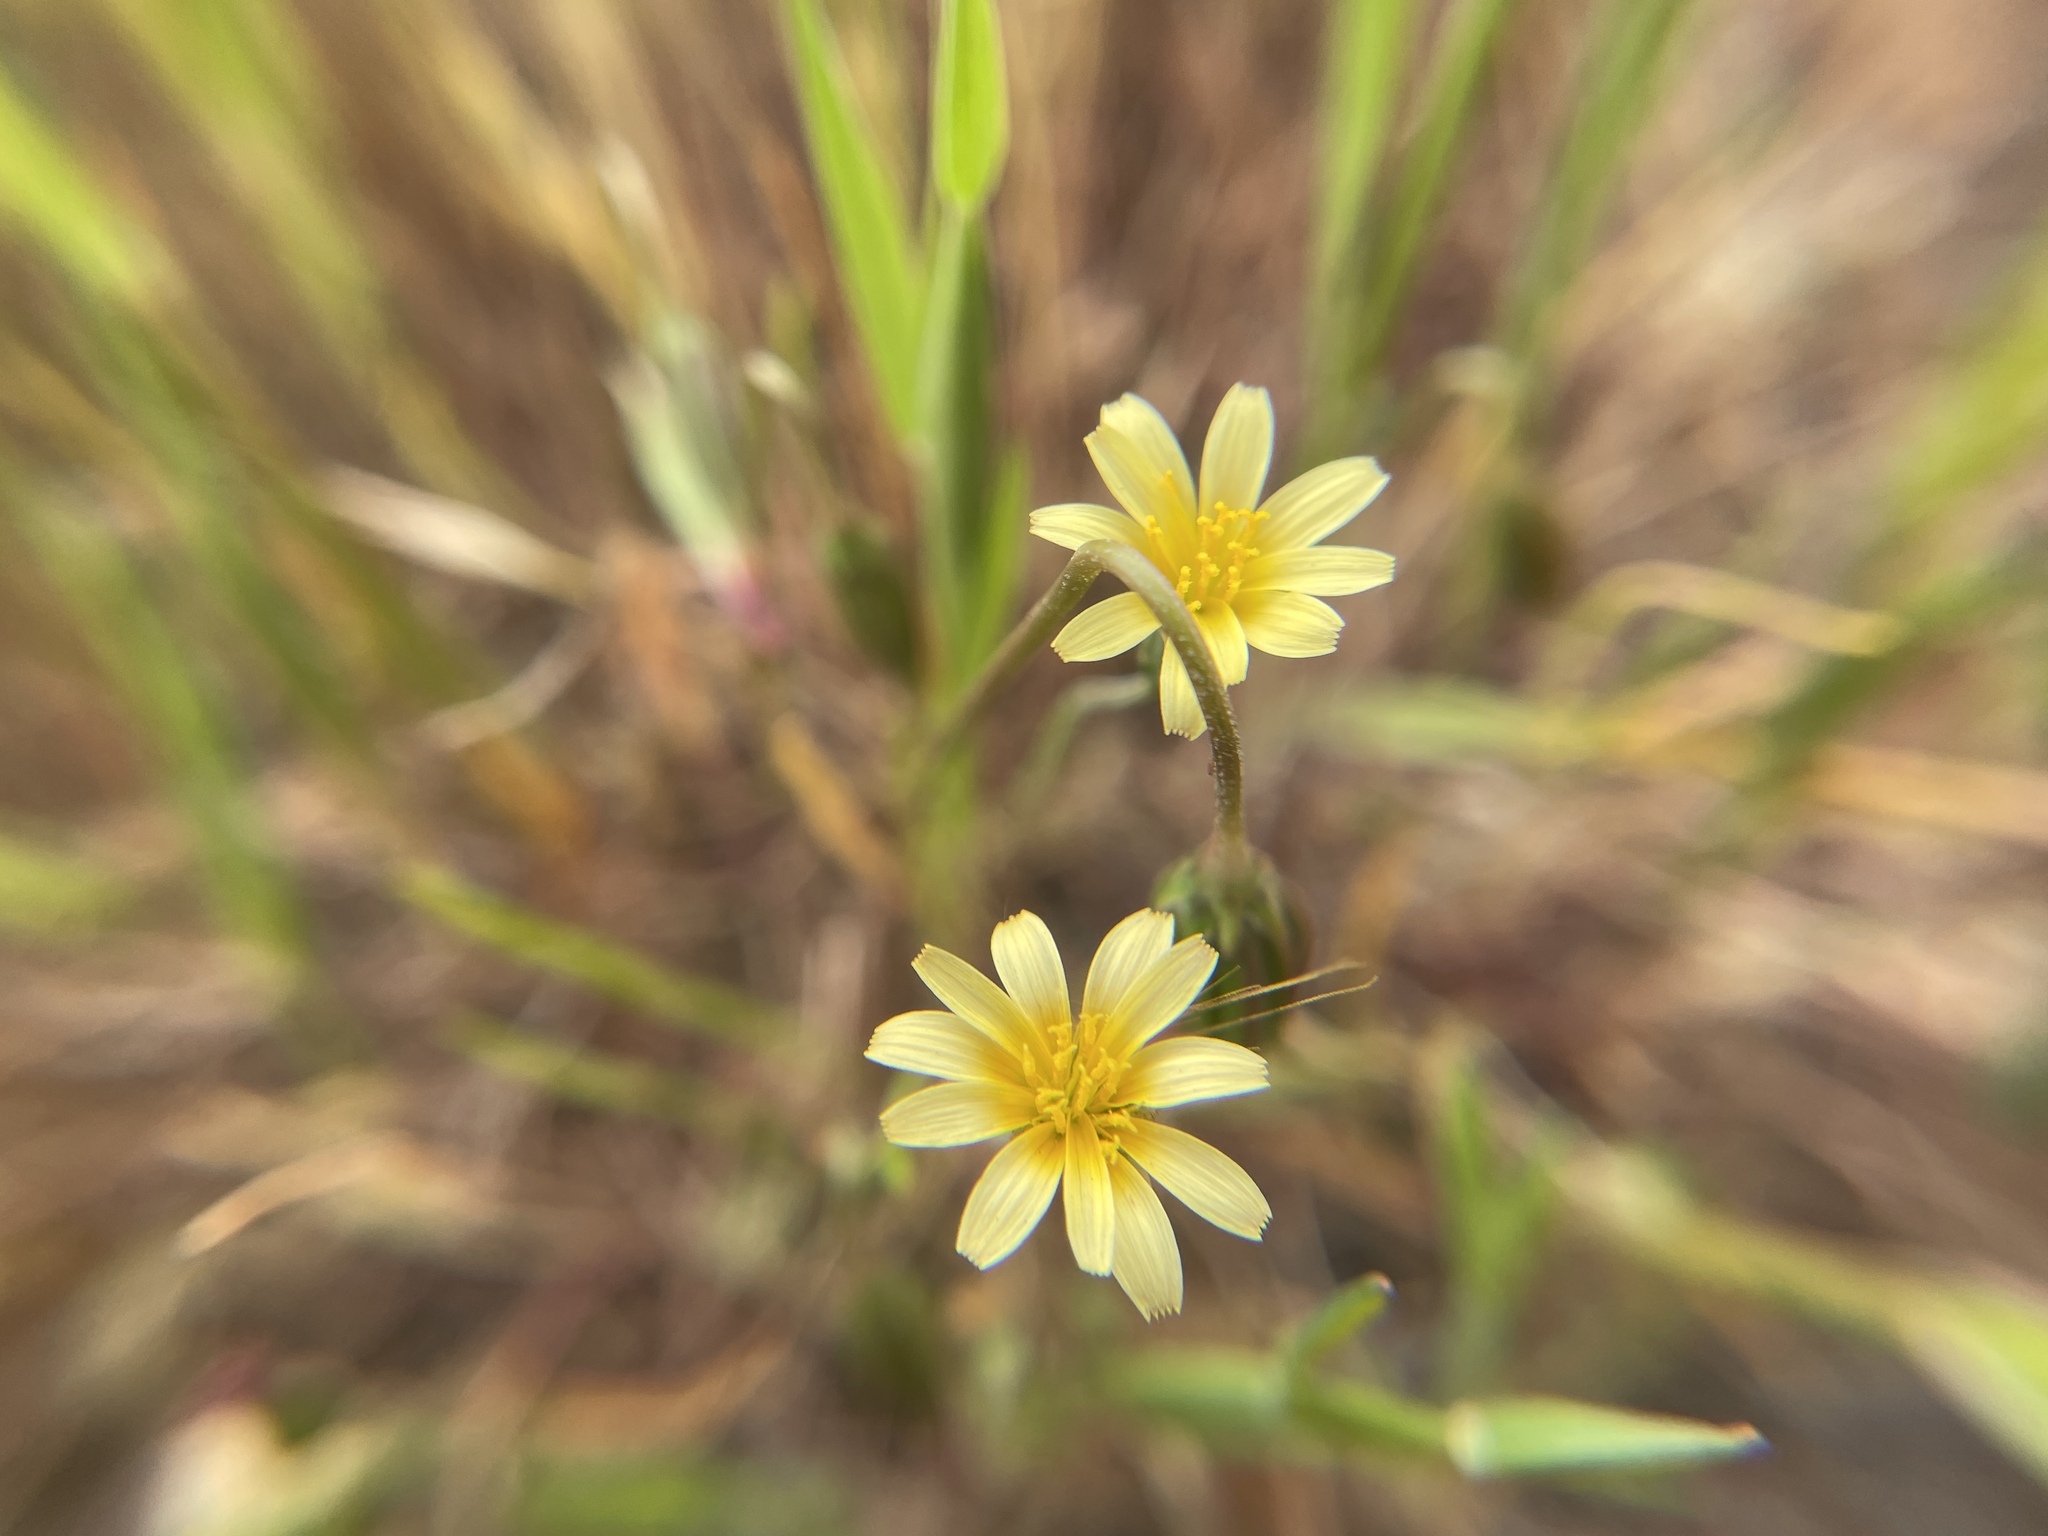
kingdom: Plantae
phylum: Tracheophyta
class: Magnoliopsida
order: Asterales
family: Asteraceae
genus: Microseris
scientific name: Microseris douglasii
